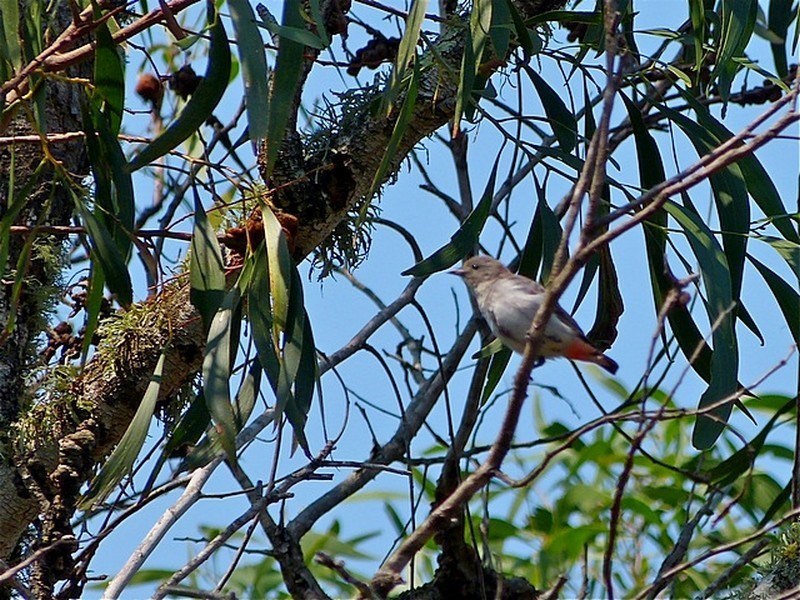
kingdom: Animalia
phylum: Chordata
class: Aves
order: Passeriformes
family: Dicaeidae
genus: Dicaeum
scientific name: Dicaeum hirundinaceum
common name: Mistletoebird
